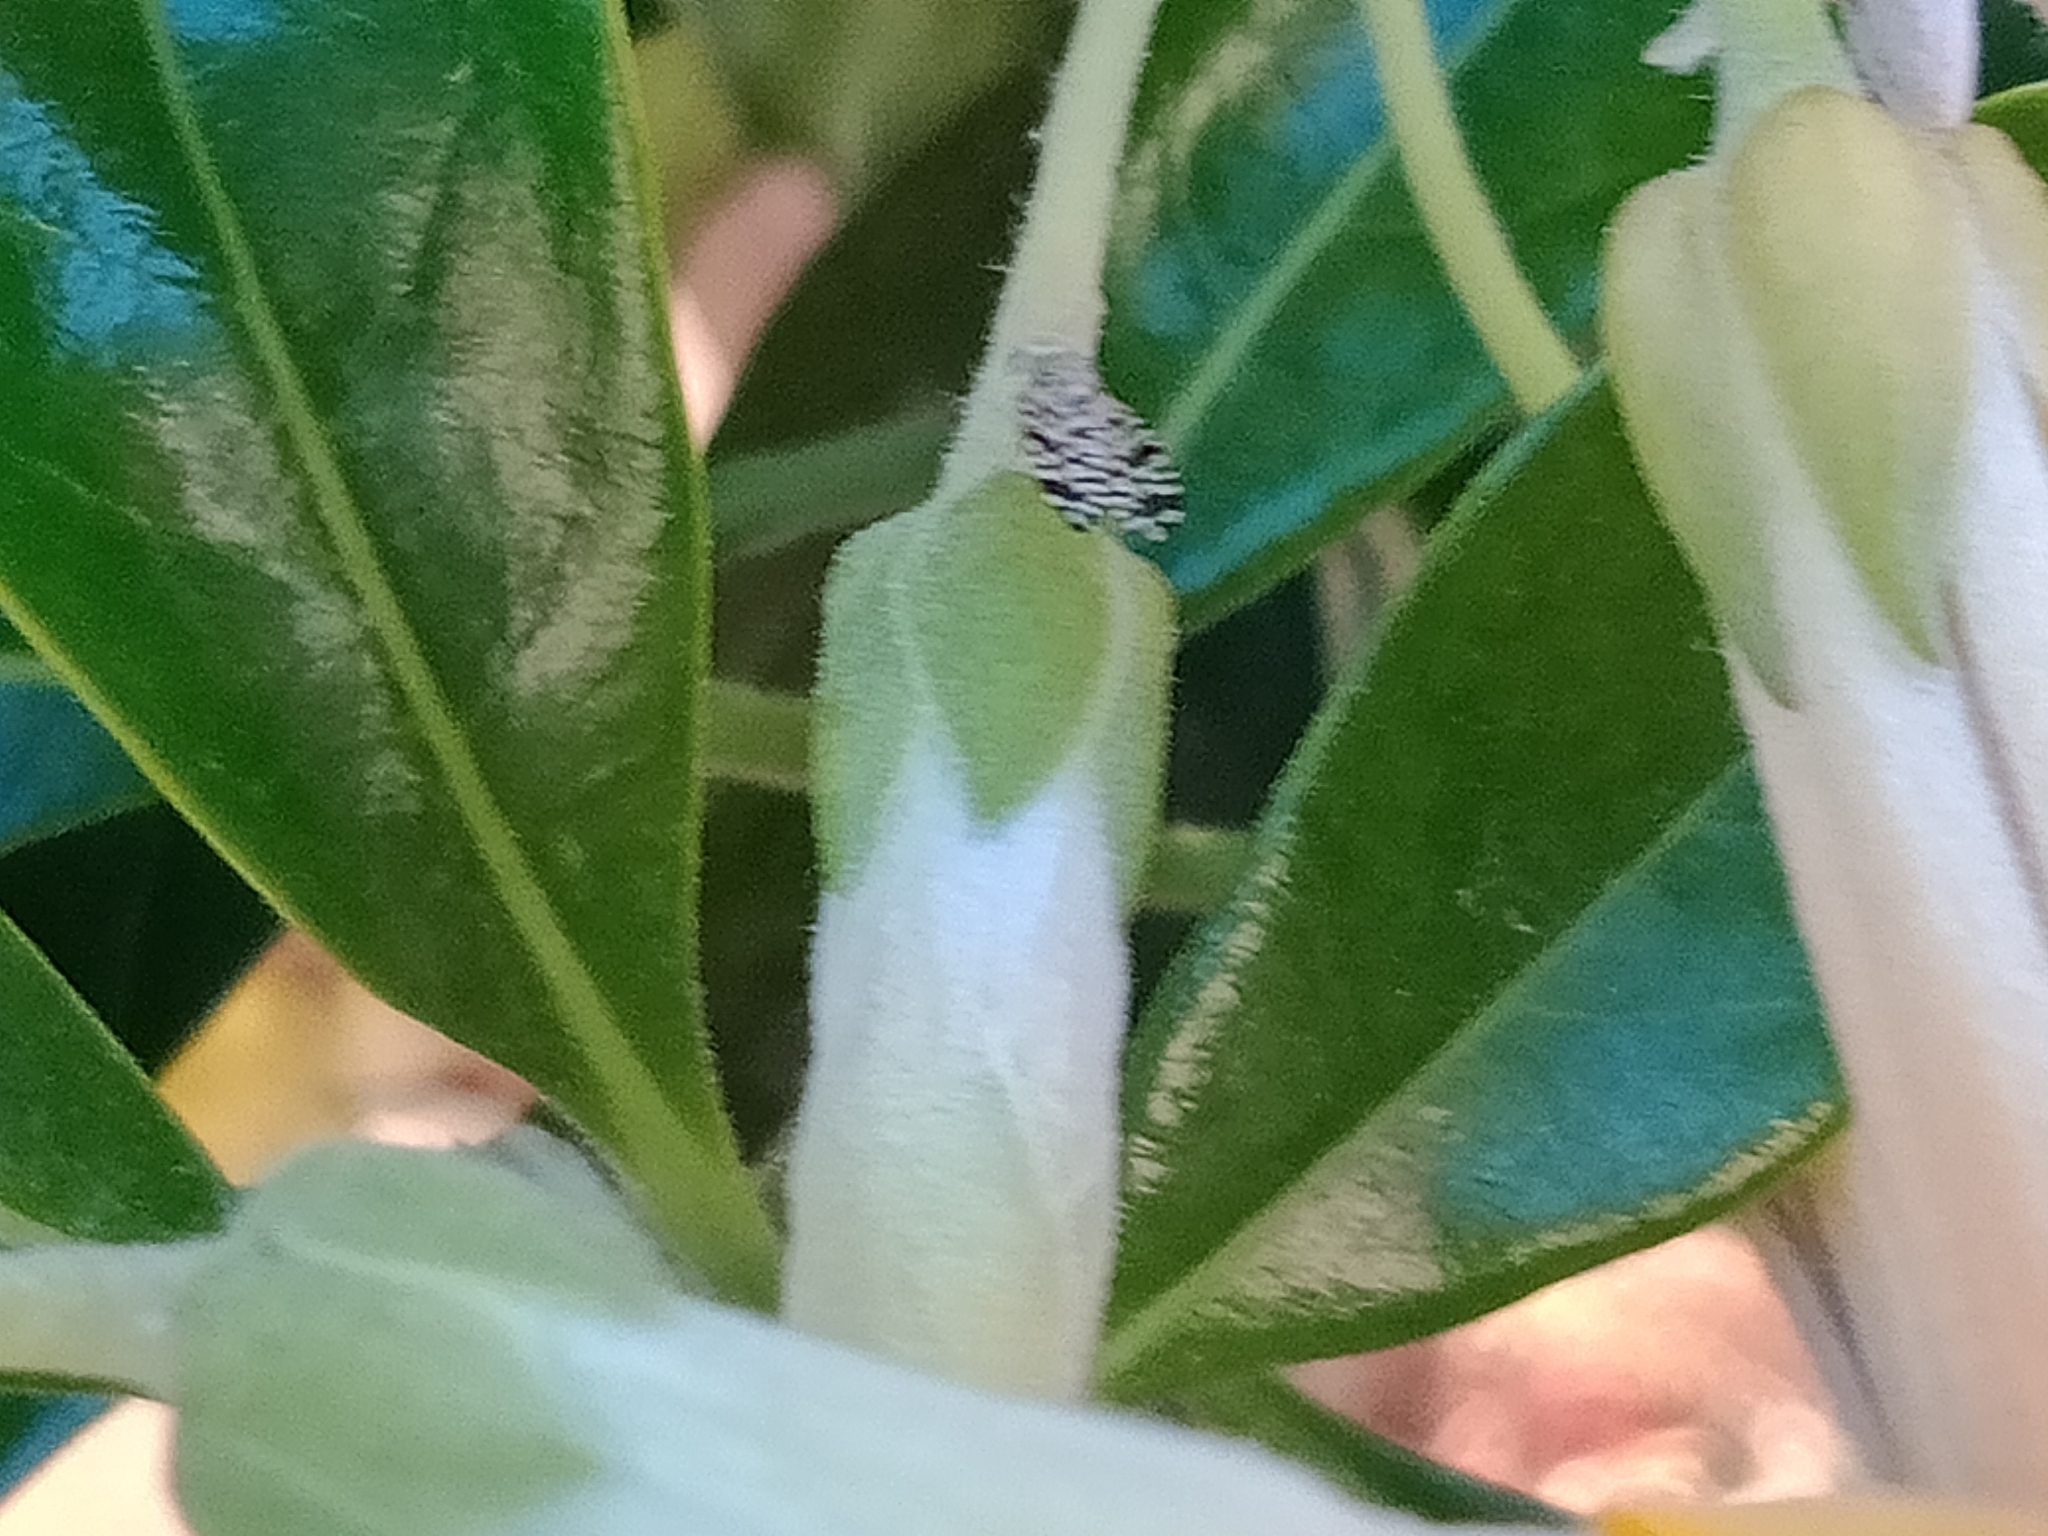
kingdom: Animalia
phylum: Arthropoda
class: Insecta
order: Diptera
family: Tephritidae
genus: Euaresta
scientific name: Euaresta bullans
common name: Fruitfly
